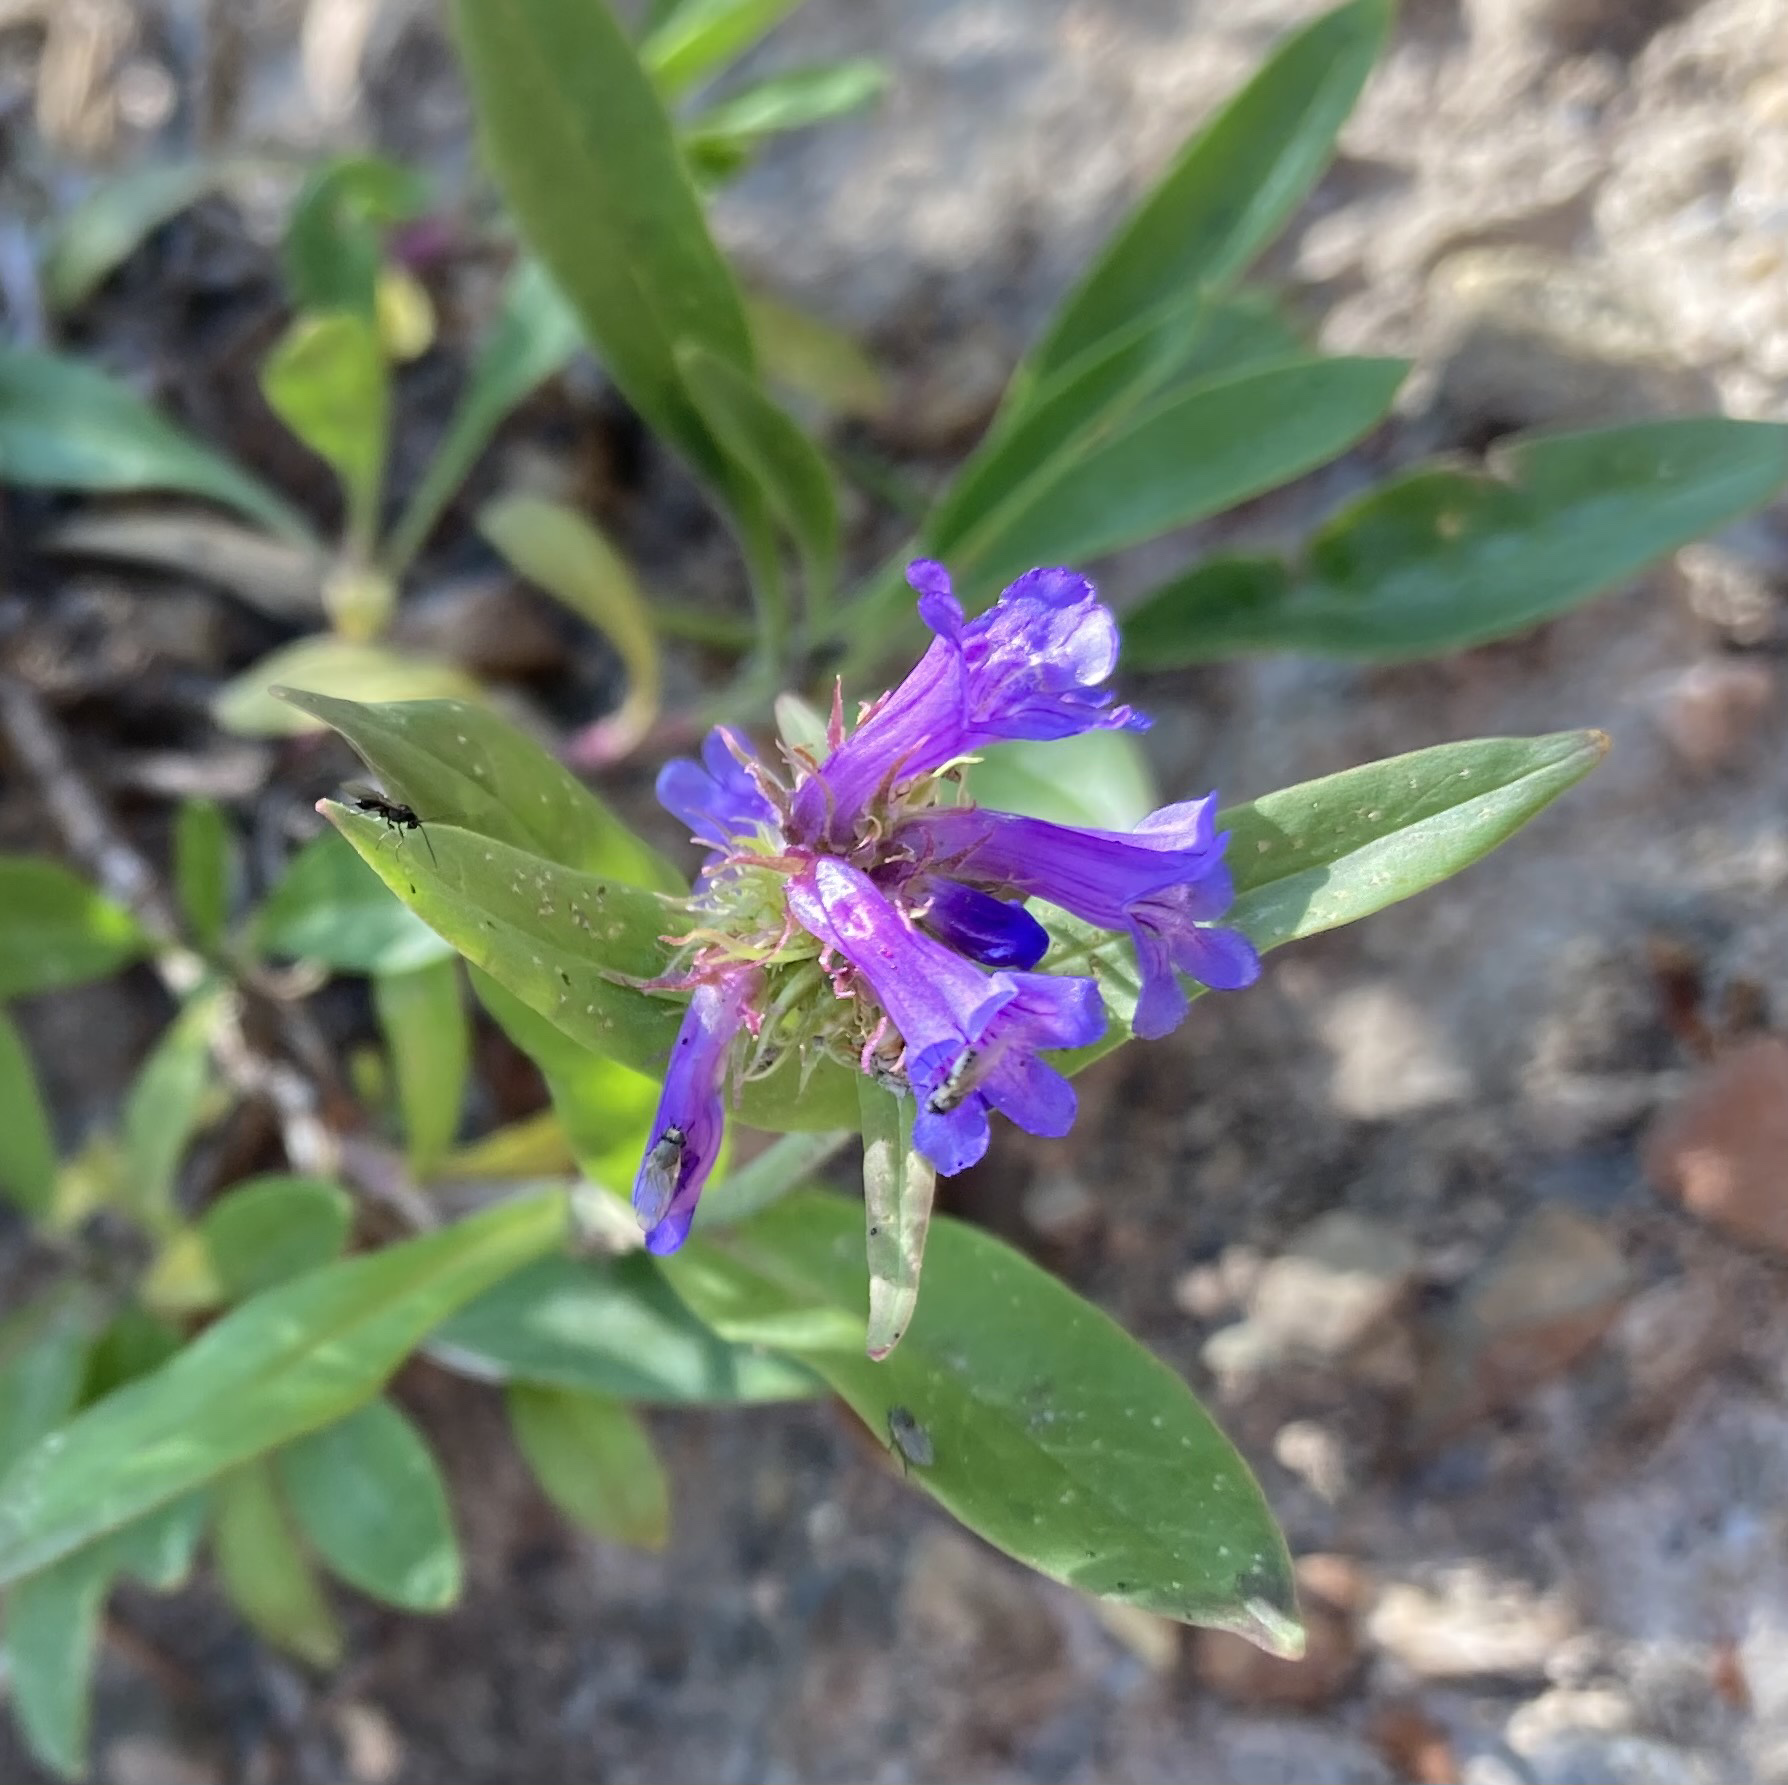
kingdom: Plantae
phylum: Tracheophyta
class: Magnoliopsida
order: Lamiales
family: Plantaginaceae
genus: Penstemon
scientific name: Penstemon procerus
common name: Small-flower penstemon
